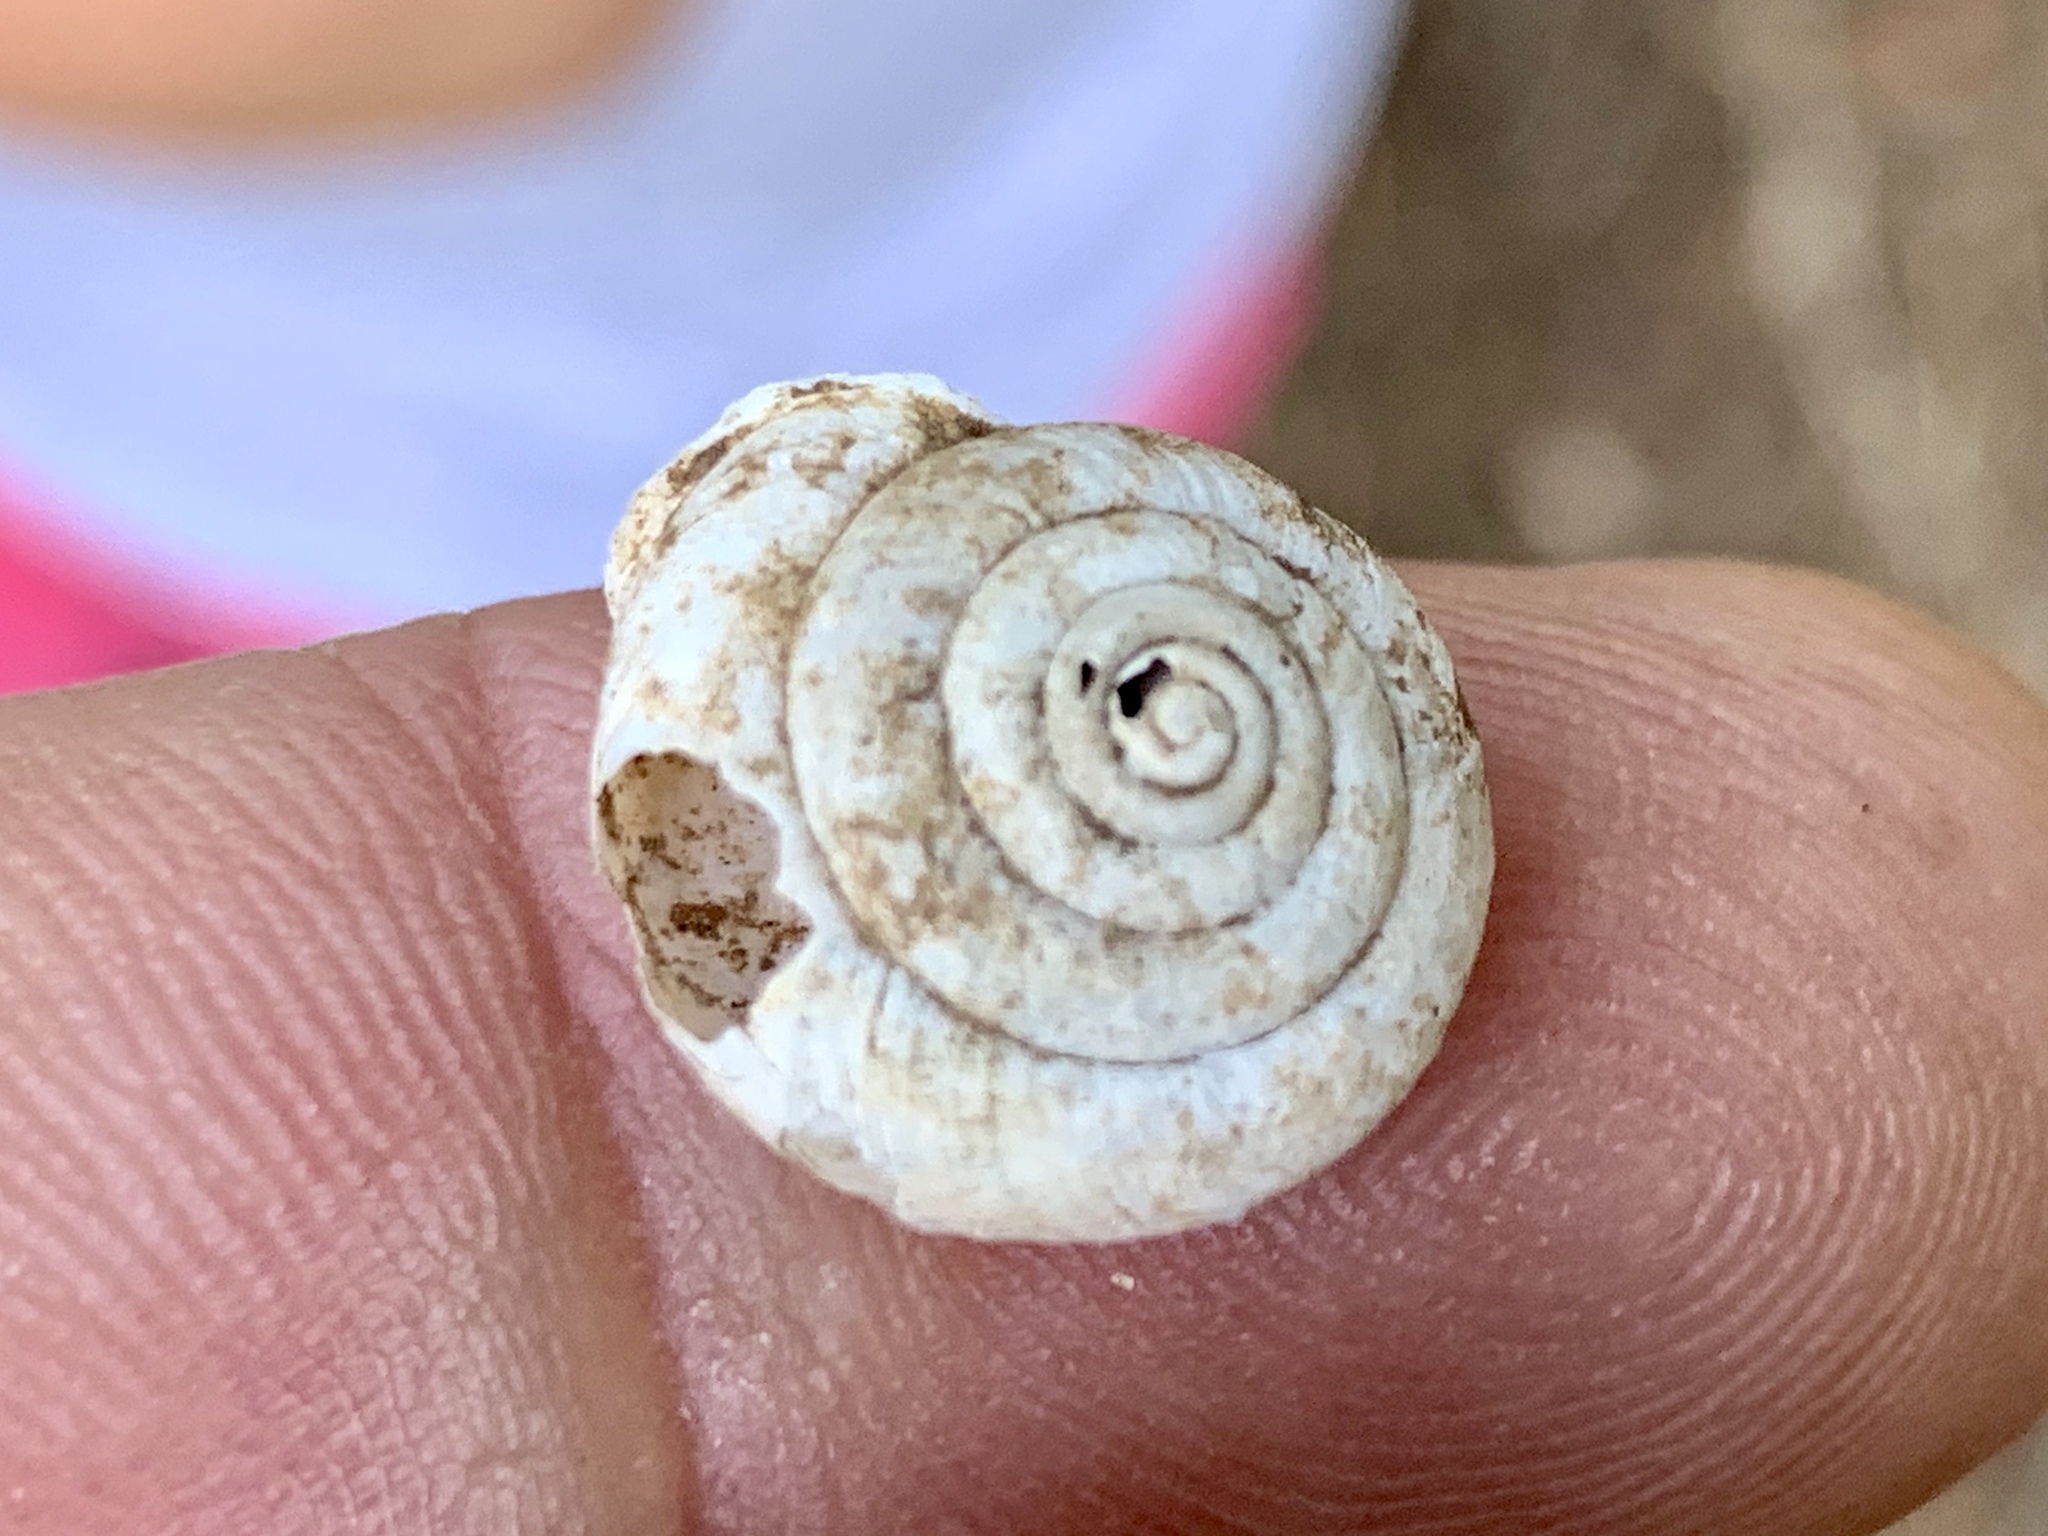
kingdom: Animalia
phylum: Mollusca
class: Gastropoda
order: Stylommatophora
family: Polygyridae
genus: Ashmunella
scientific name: Ashmunella rhyssa
